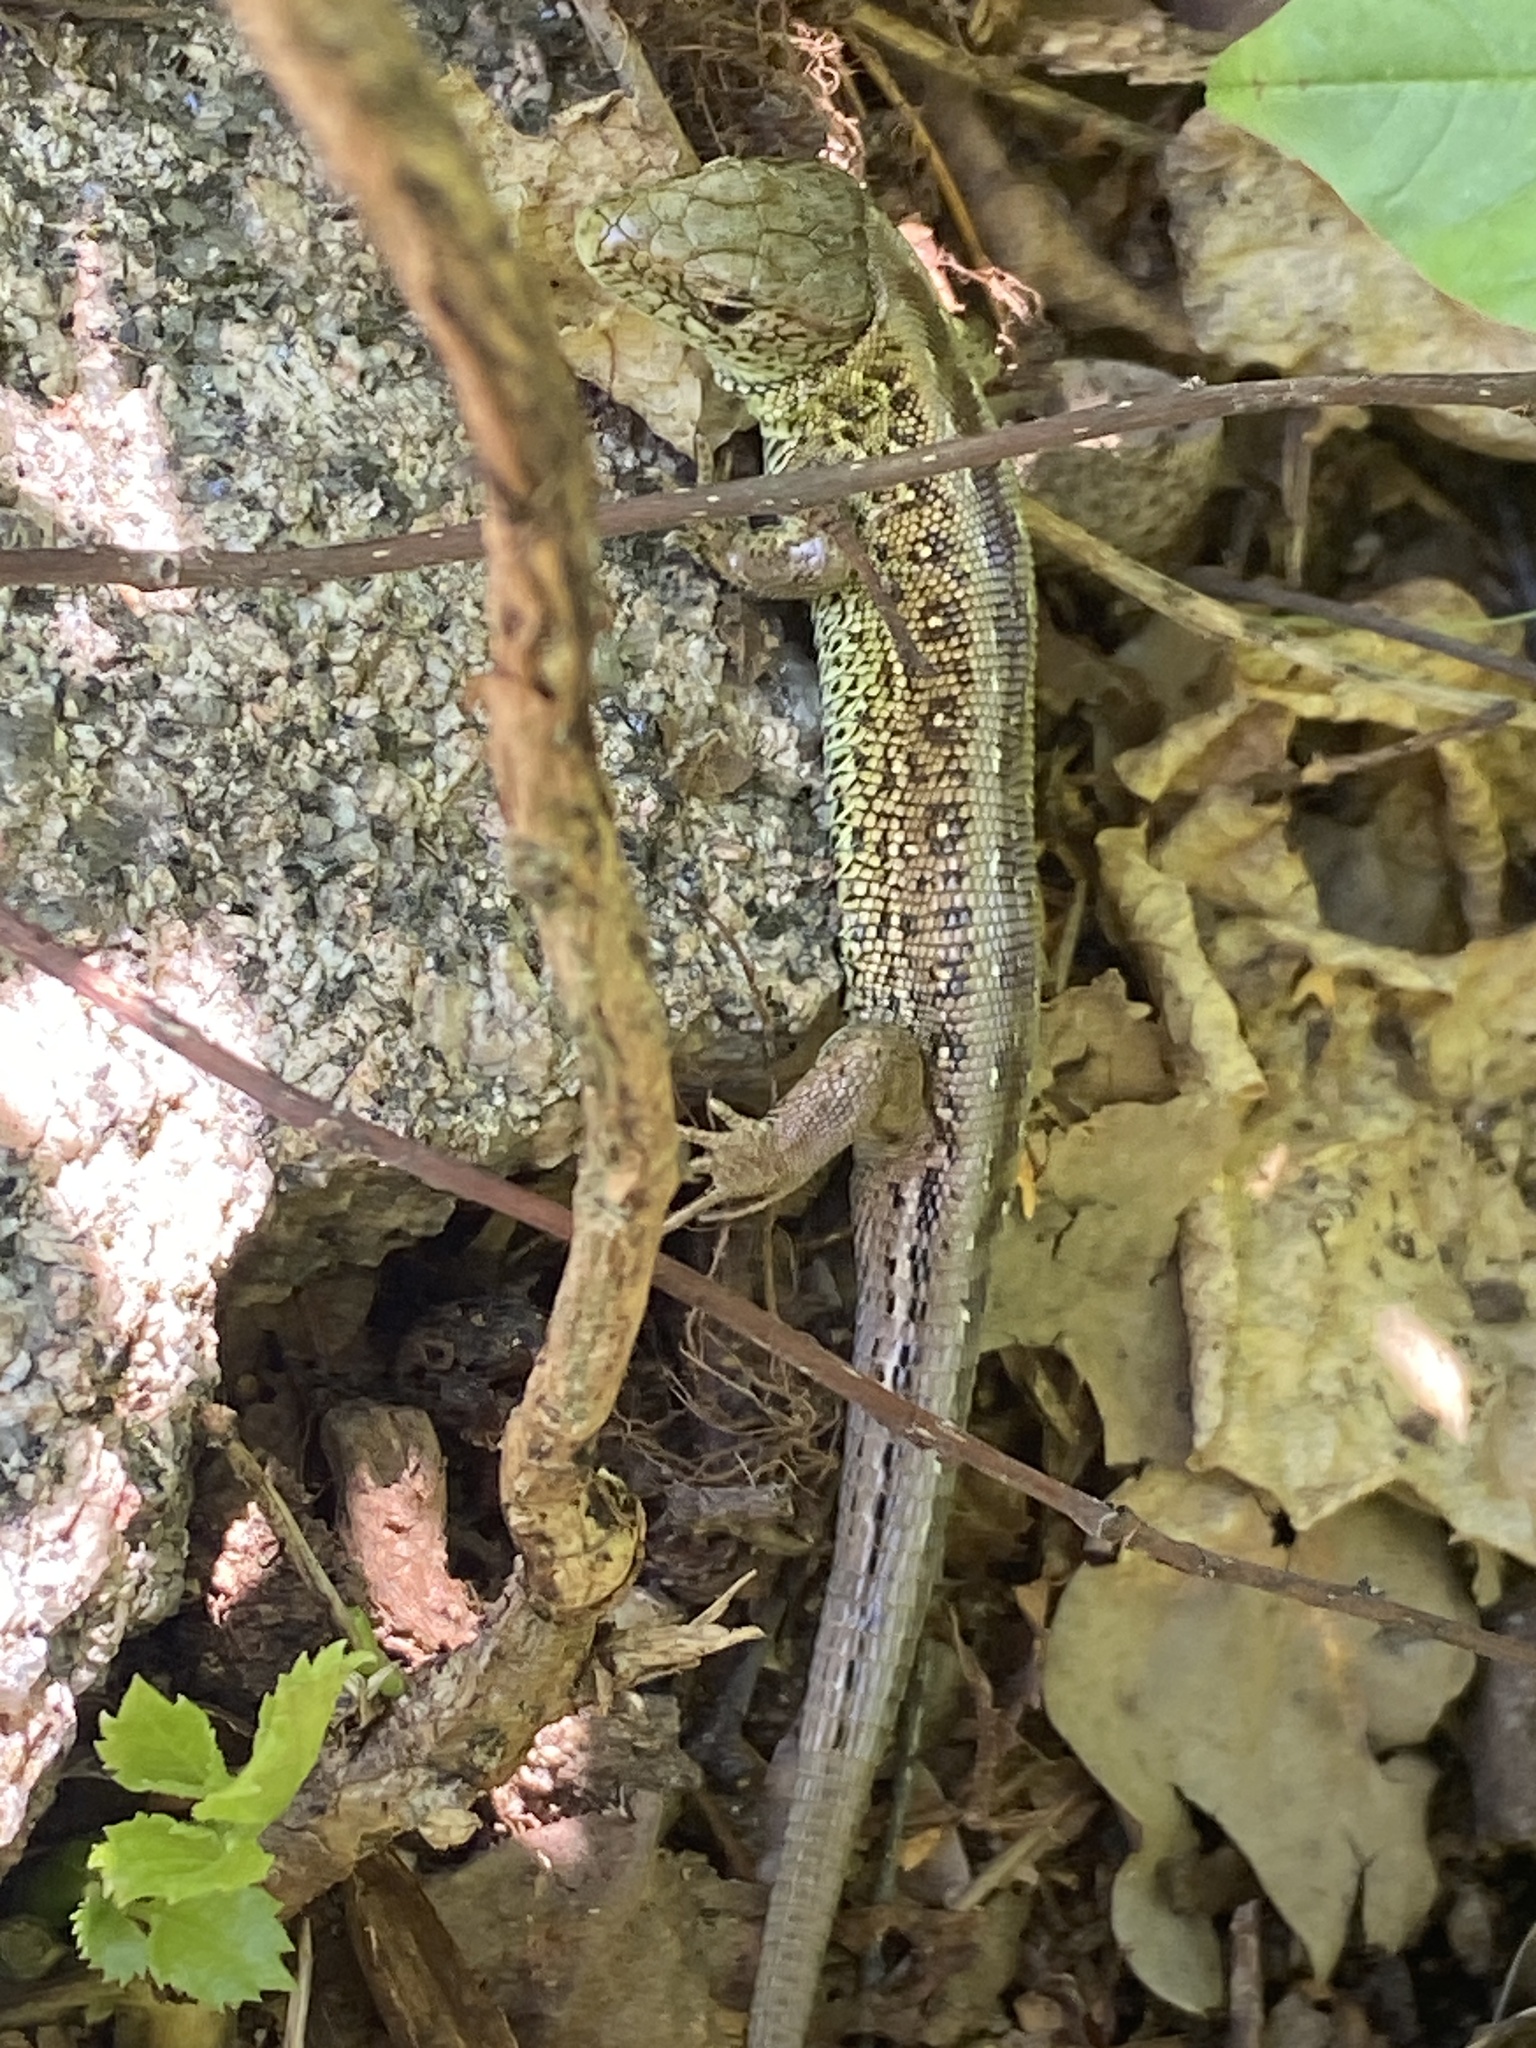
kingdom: Animalia
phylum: Chordata
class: Squamata
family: Lacertidae
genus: Lacerta
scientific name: Lacerta agilis
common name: Sand lizard
